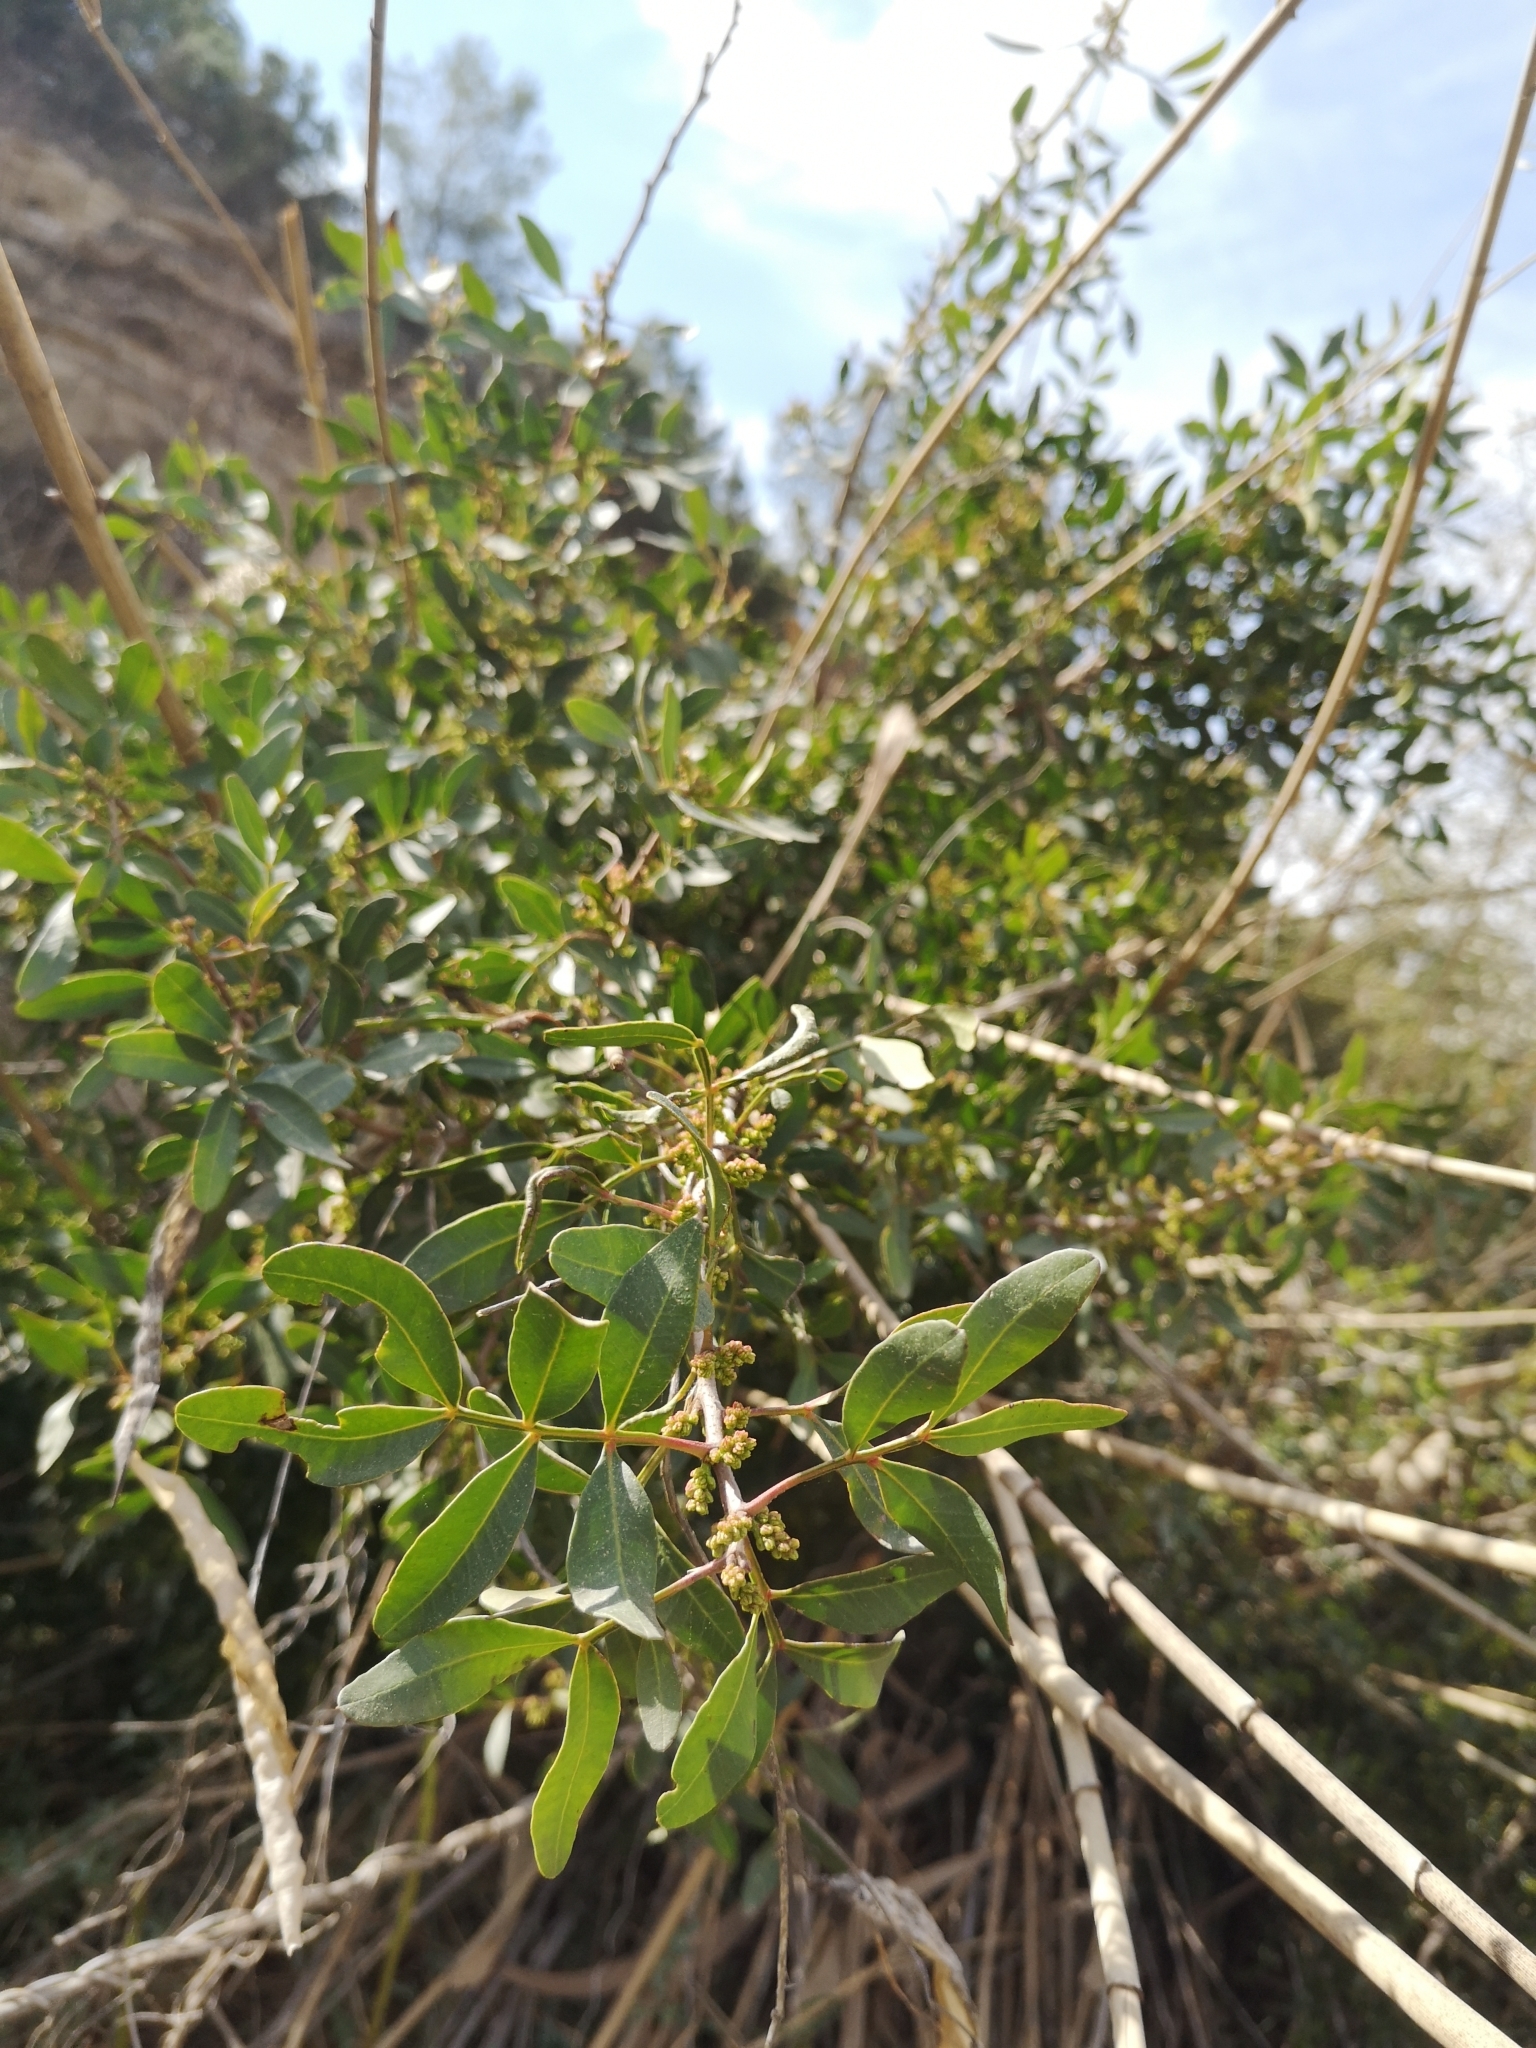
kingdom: Plantae
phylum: Tracheophyta
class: Magnoliopsida
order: Sapindales
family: Anacardiaceae
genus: Pistacia
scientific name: Pistacia lentiscus
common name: Lentisk
